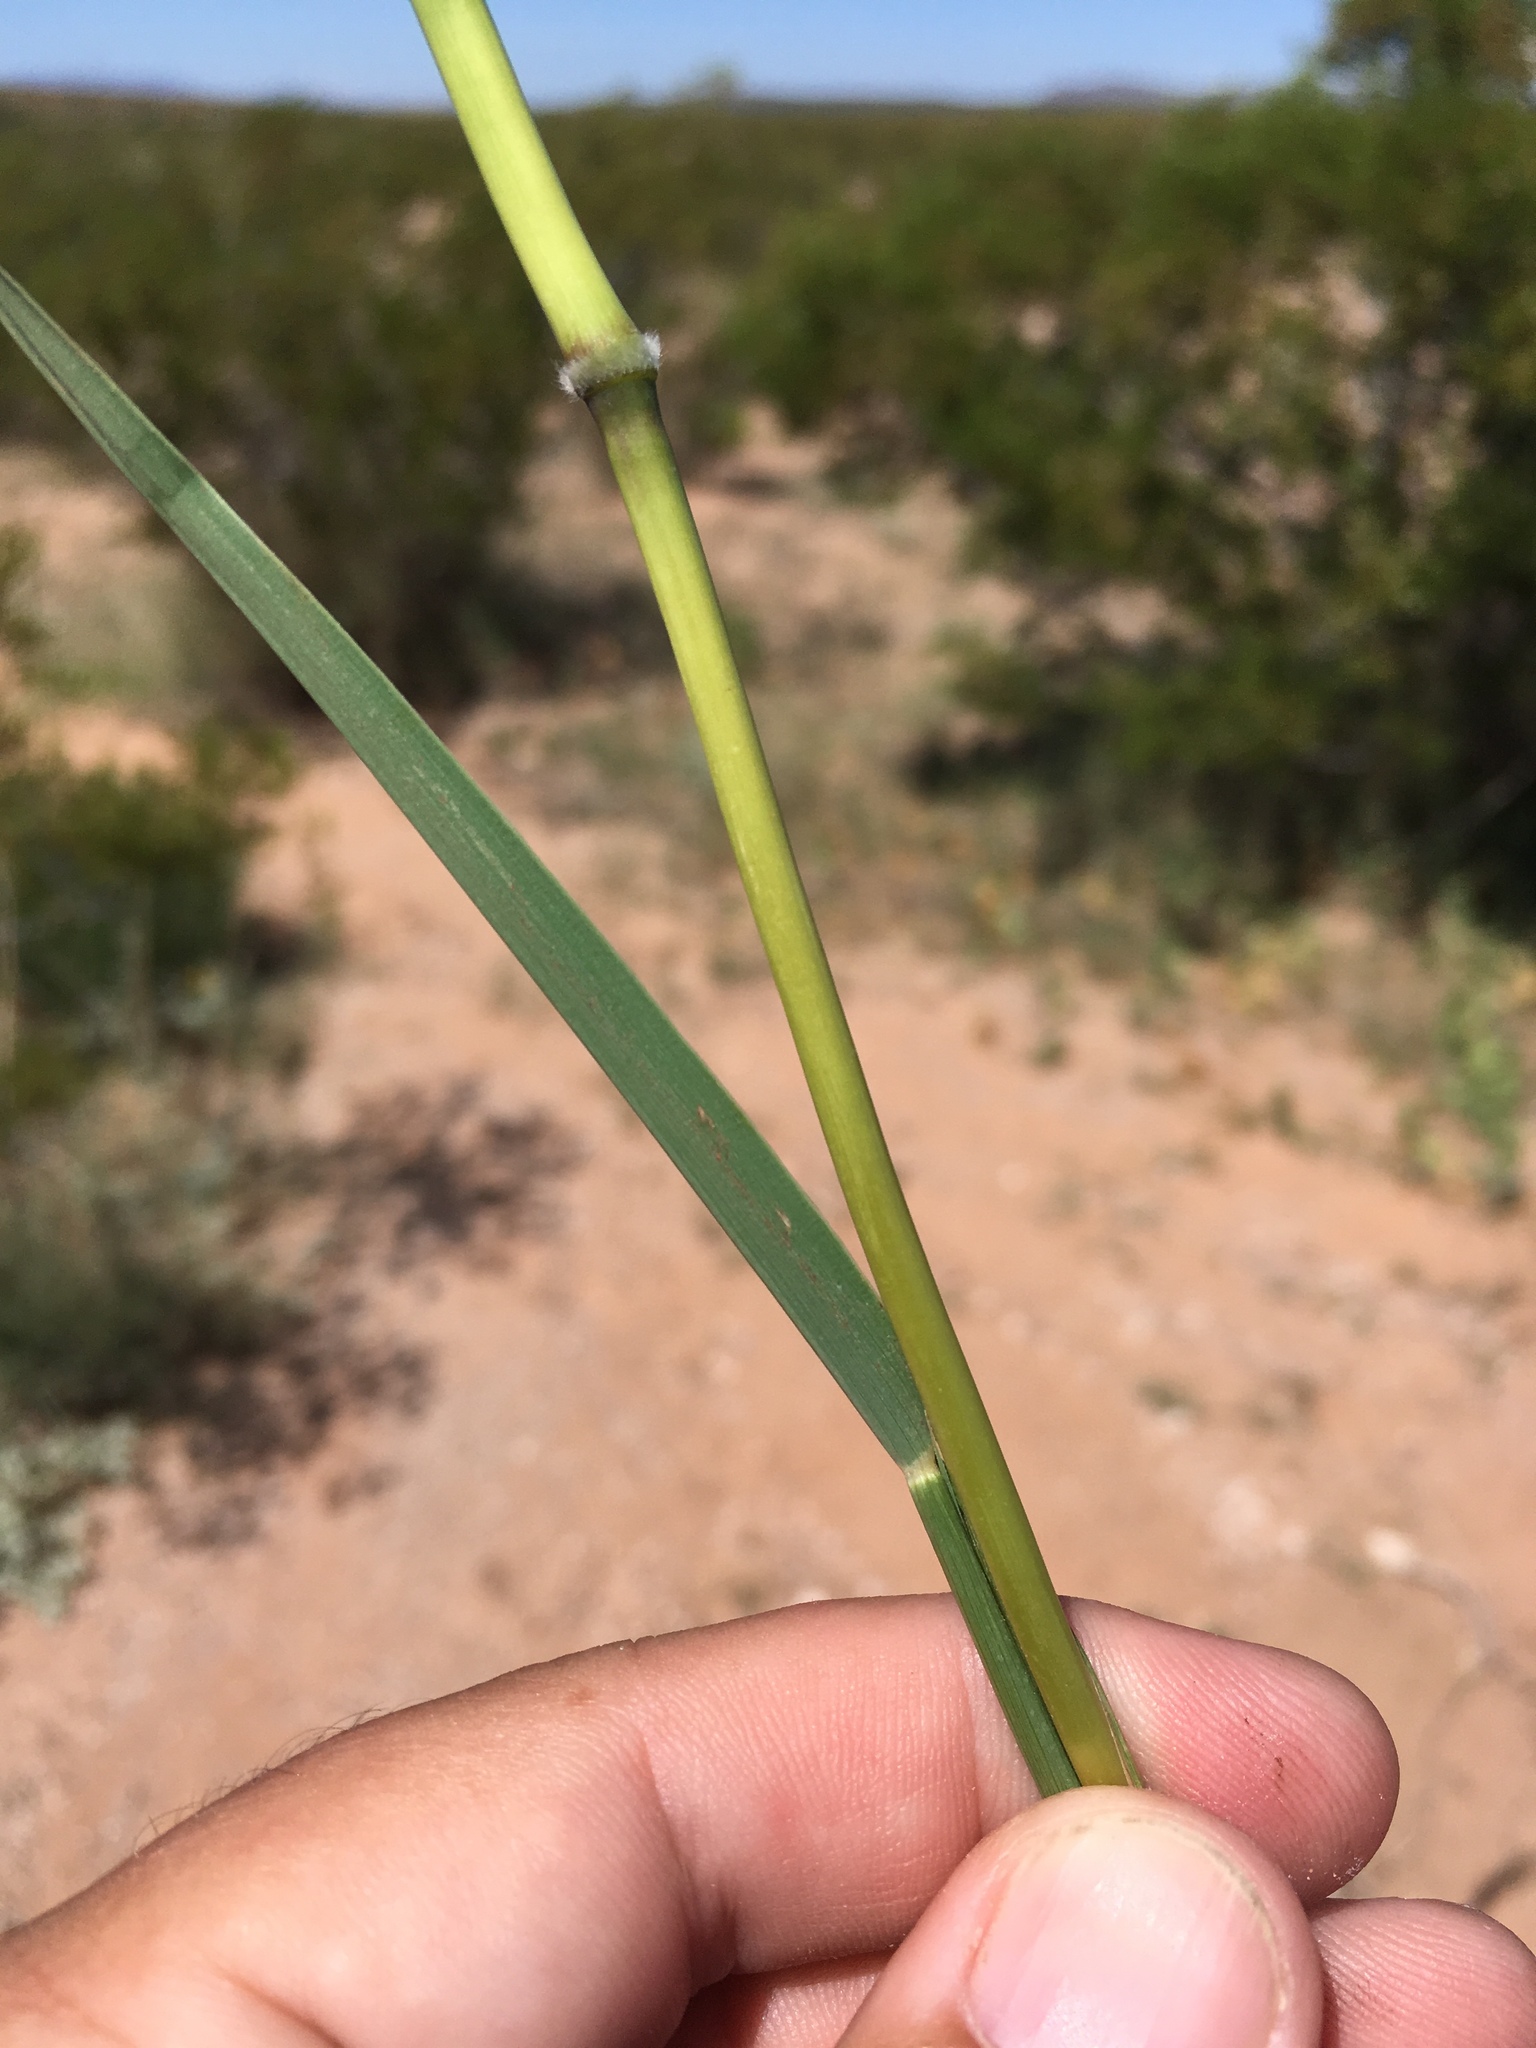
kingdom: Plantae
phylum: Tracheophyta
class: Liliopsida
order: Poales
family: Poaceae
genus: Bothriochloa
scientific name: Bothriochloa barbinodis
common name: Cane bluestem
